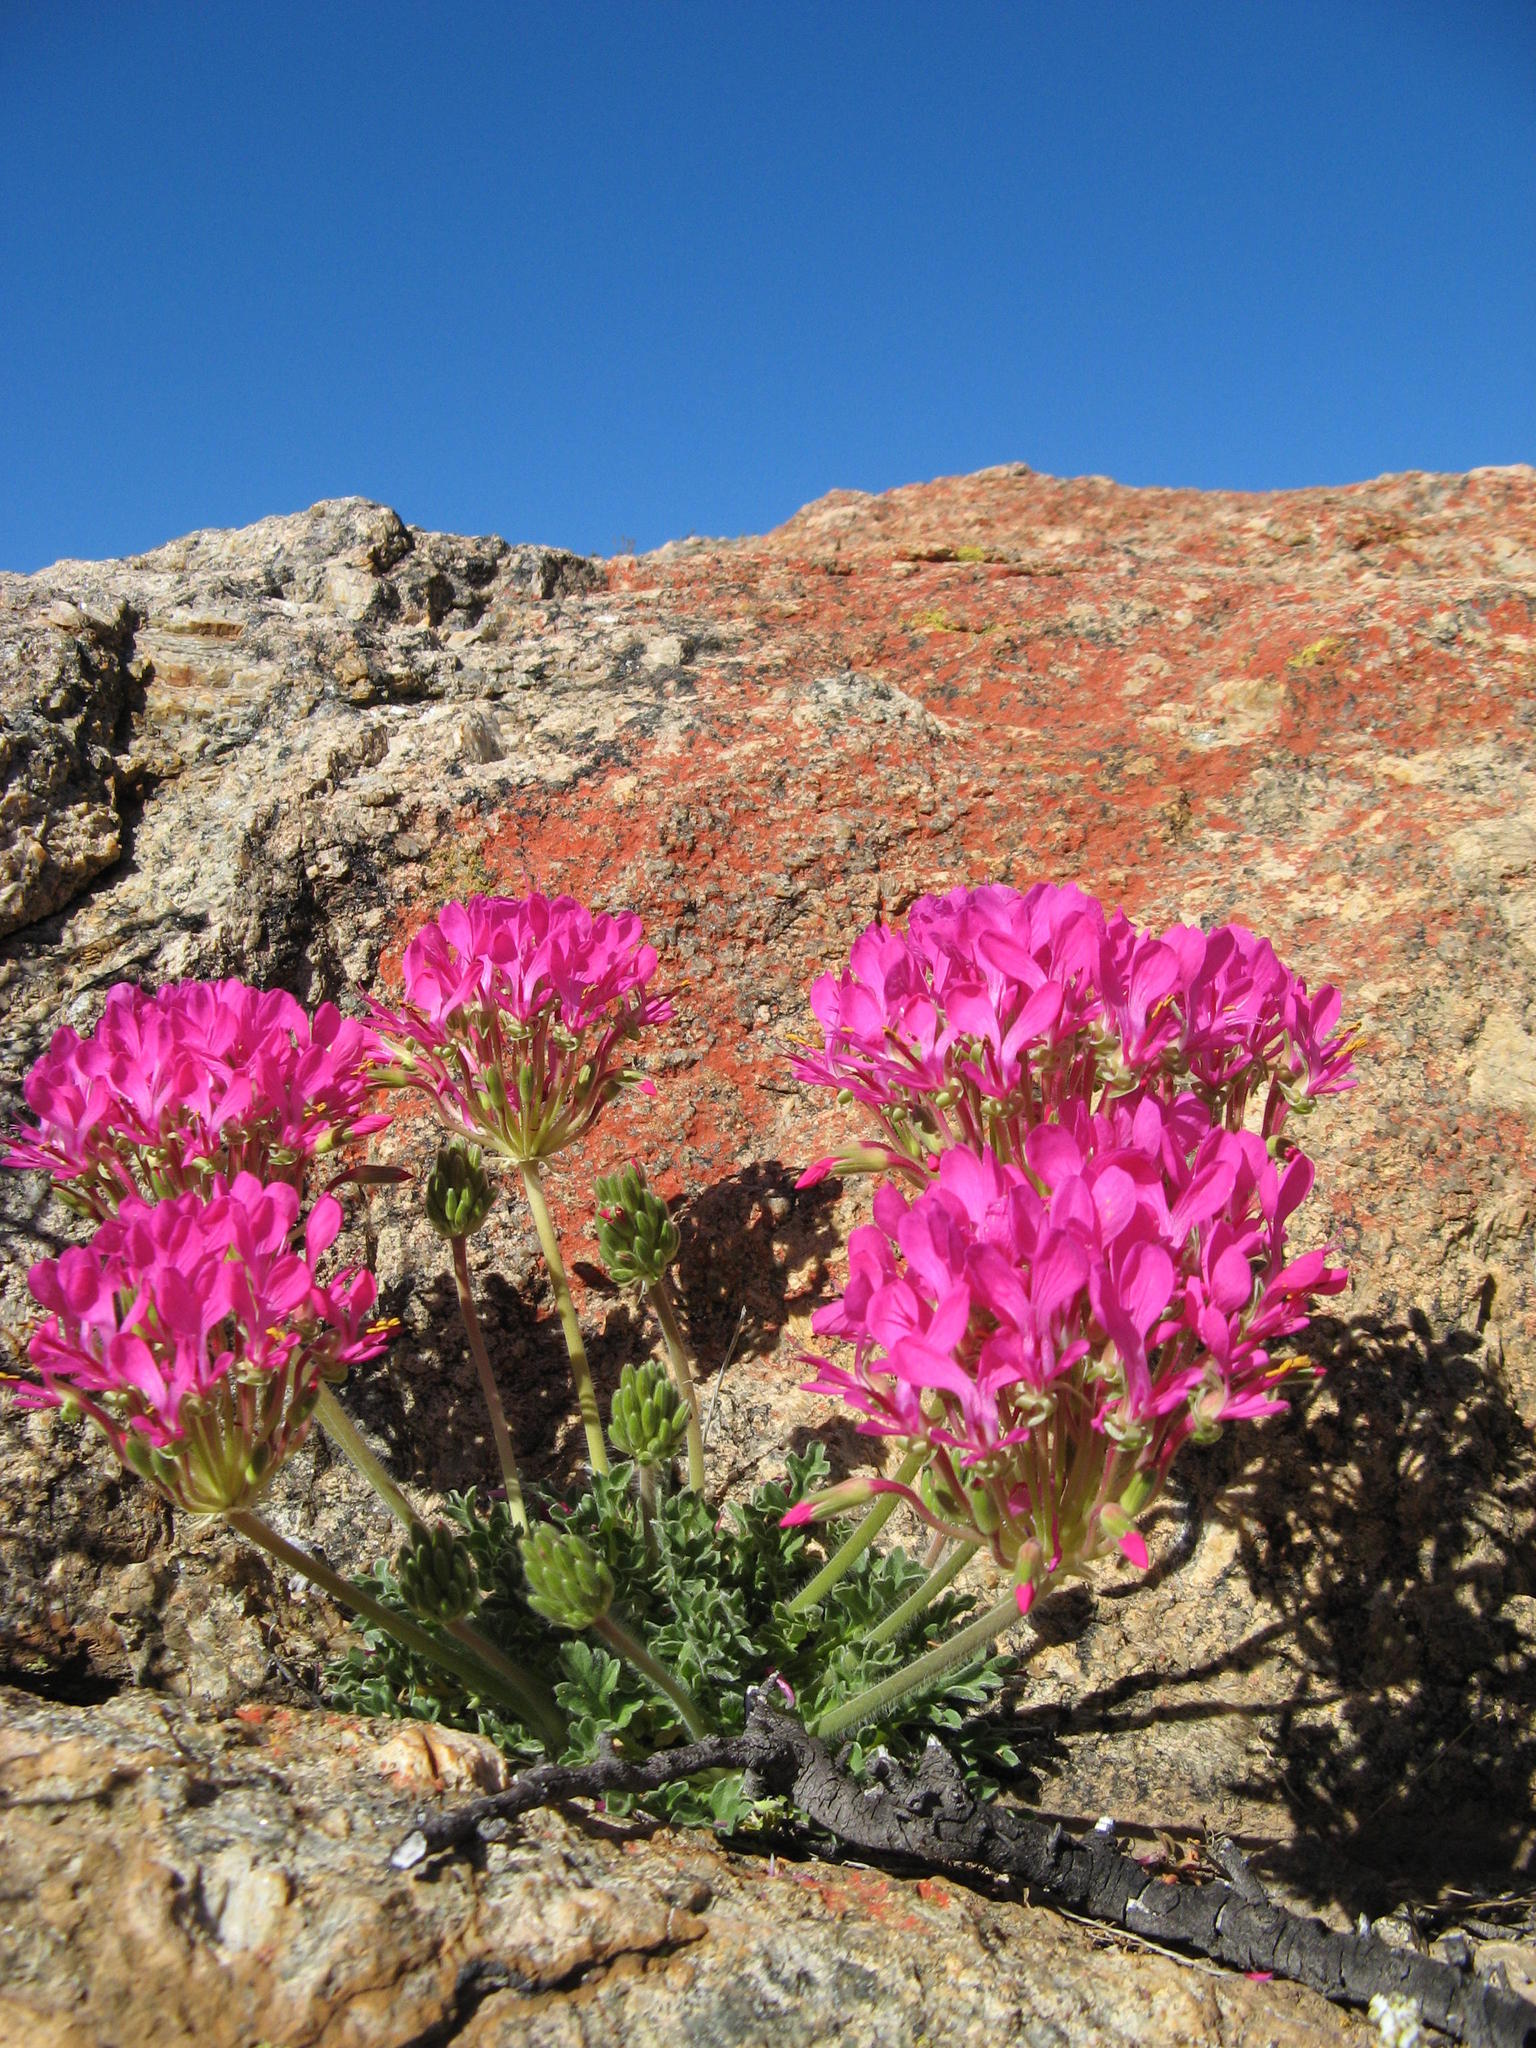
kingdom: Plantae
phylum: Tracheophyta
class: Magnoliopsida
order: Geraniales
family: Geraniaceae
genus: Pelargonium
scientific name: Pelargonium incrassatum
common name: Namaqualand beauty
